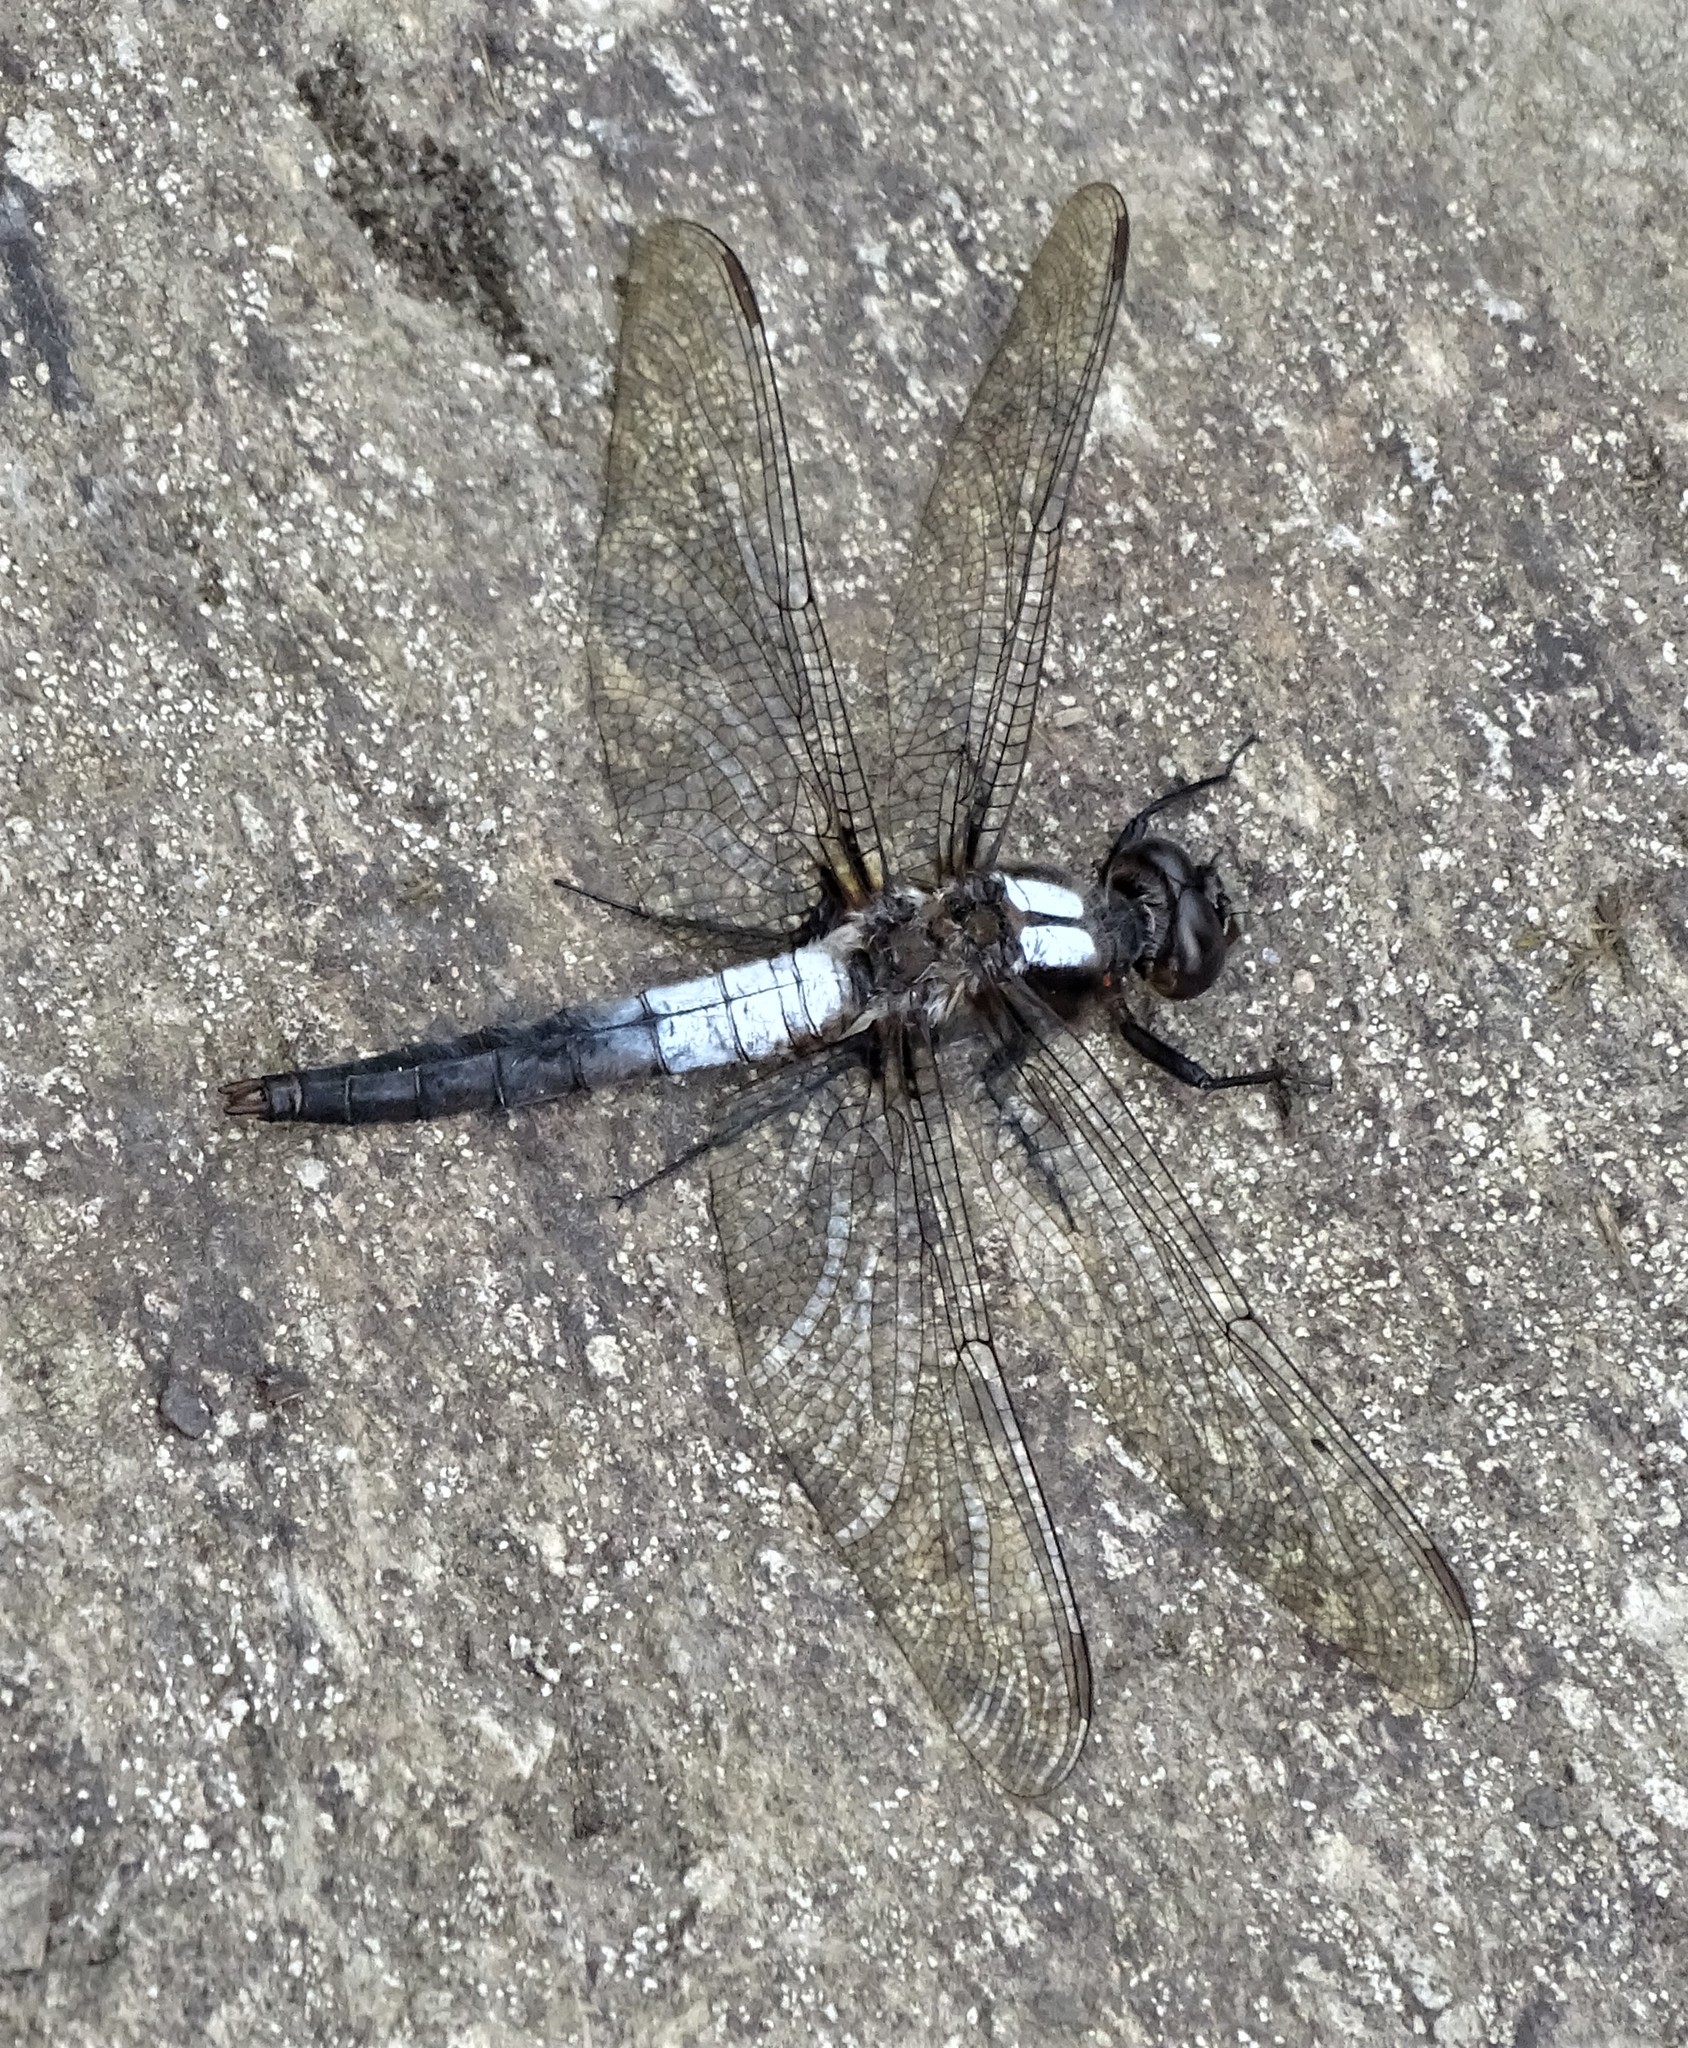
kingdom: Animalia
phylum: Arthropoda
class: Insecta
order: Odonata
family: Libellulidae
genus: Ladona
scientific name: Ladona julia
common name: Chalk-fronted corporal
